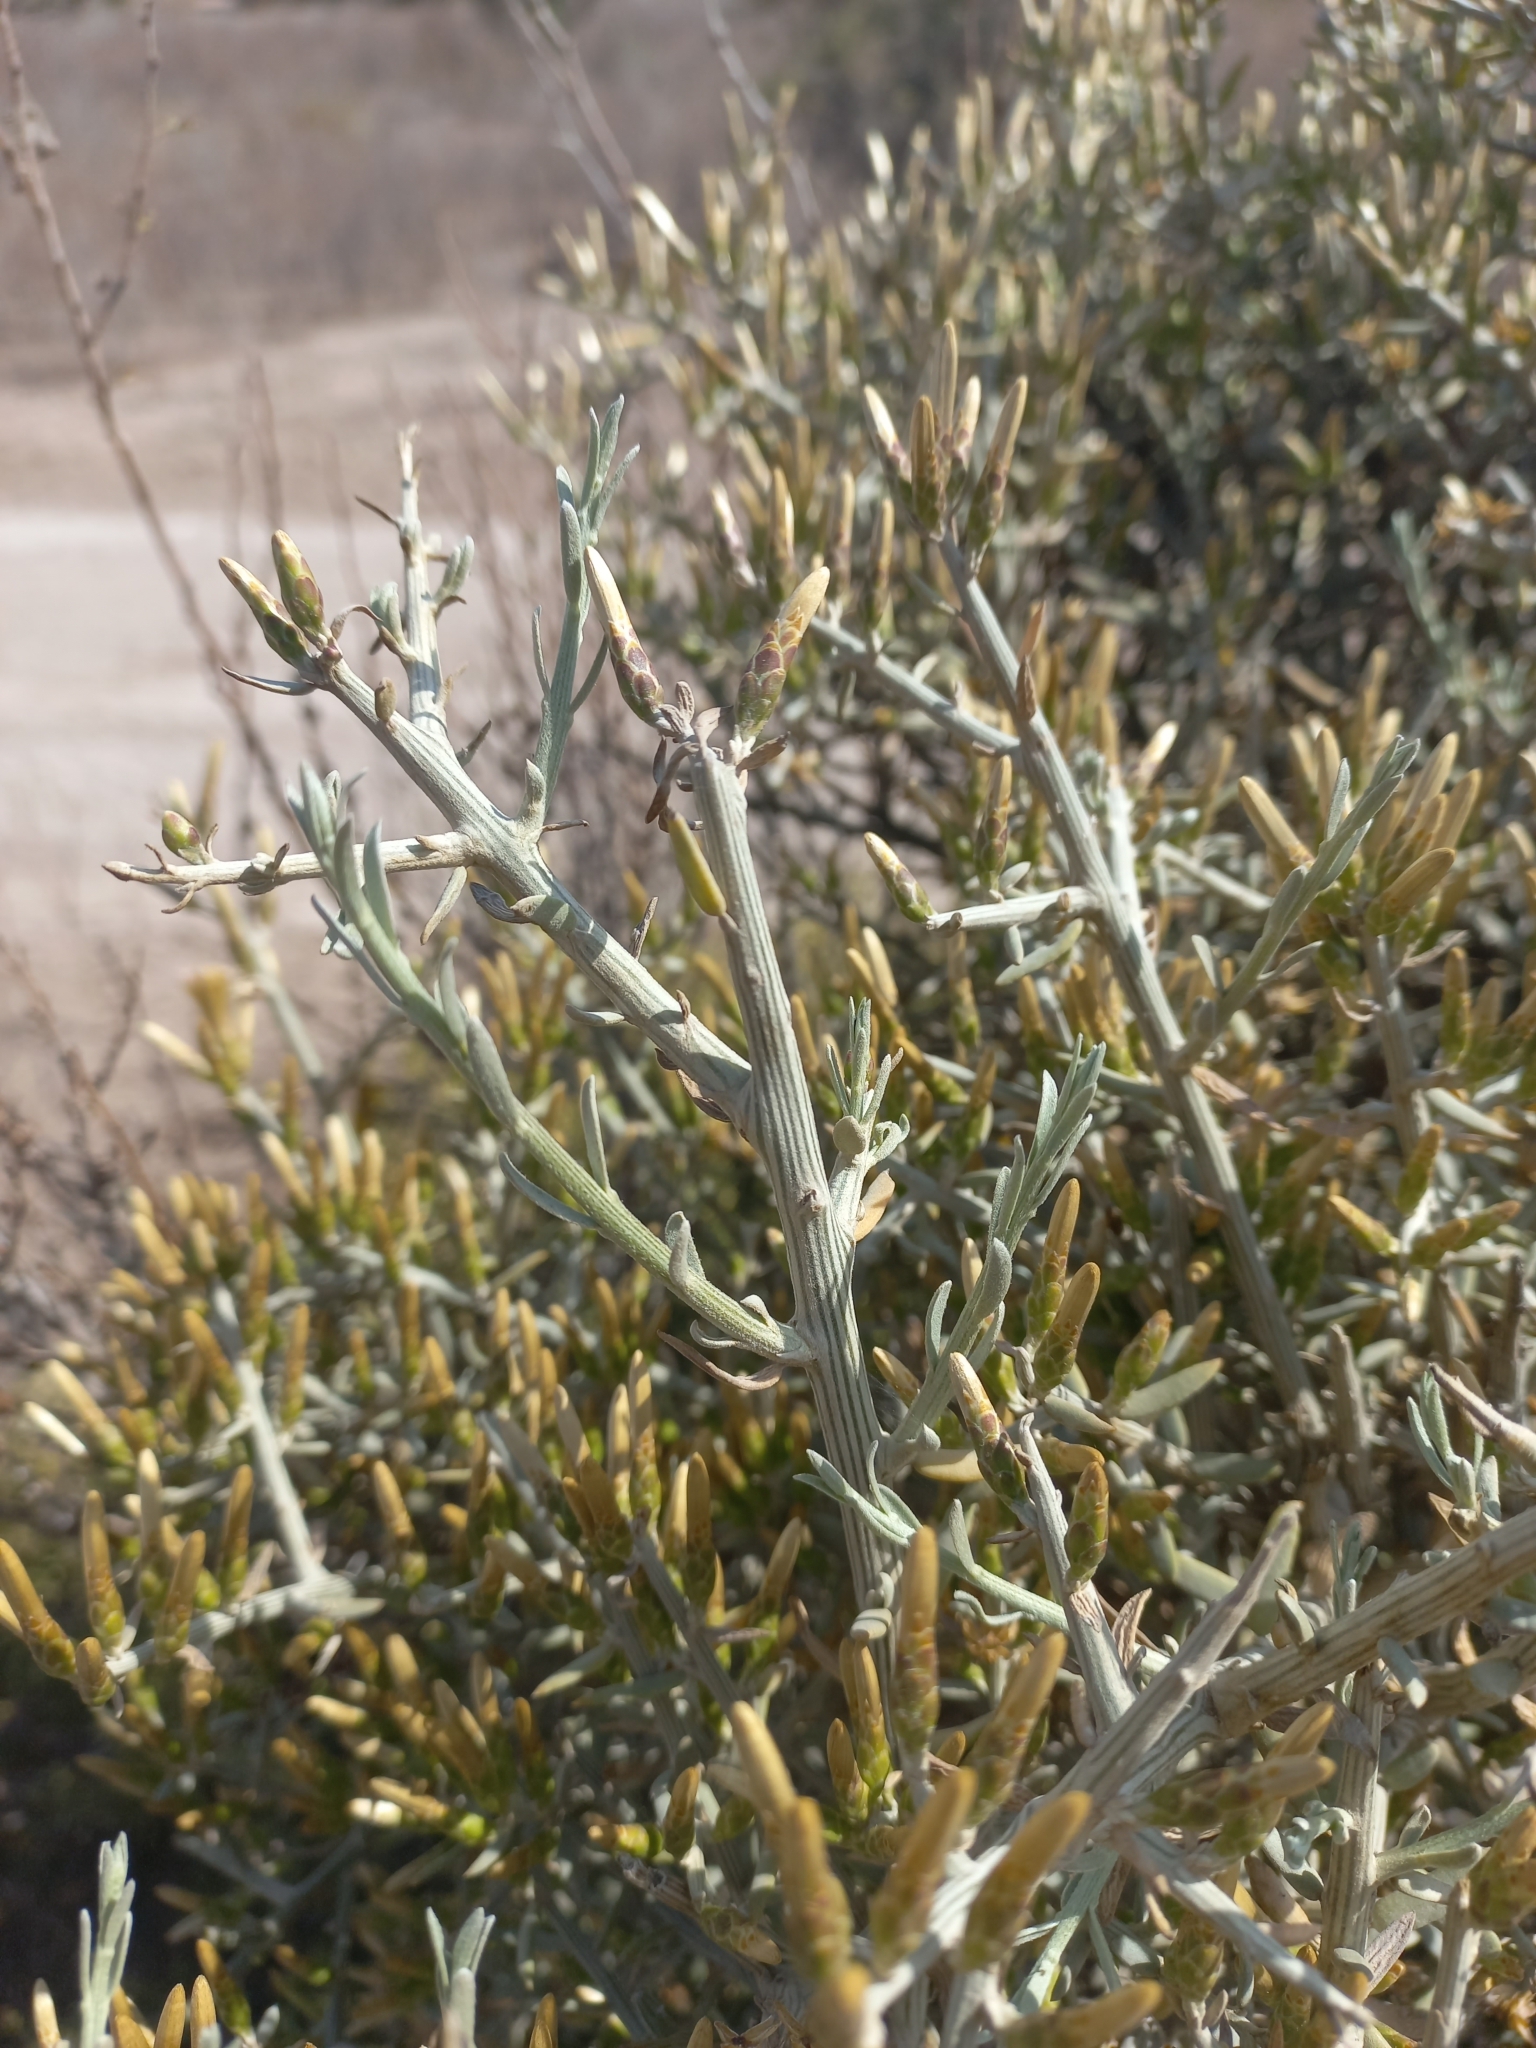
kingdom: Plantae
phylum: Tracheophyta
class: Magnoliopsida
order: Asterales
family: Asteraceae
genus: Cyclolepis
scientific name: Cyclolepis genistoides
